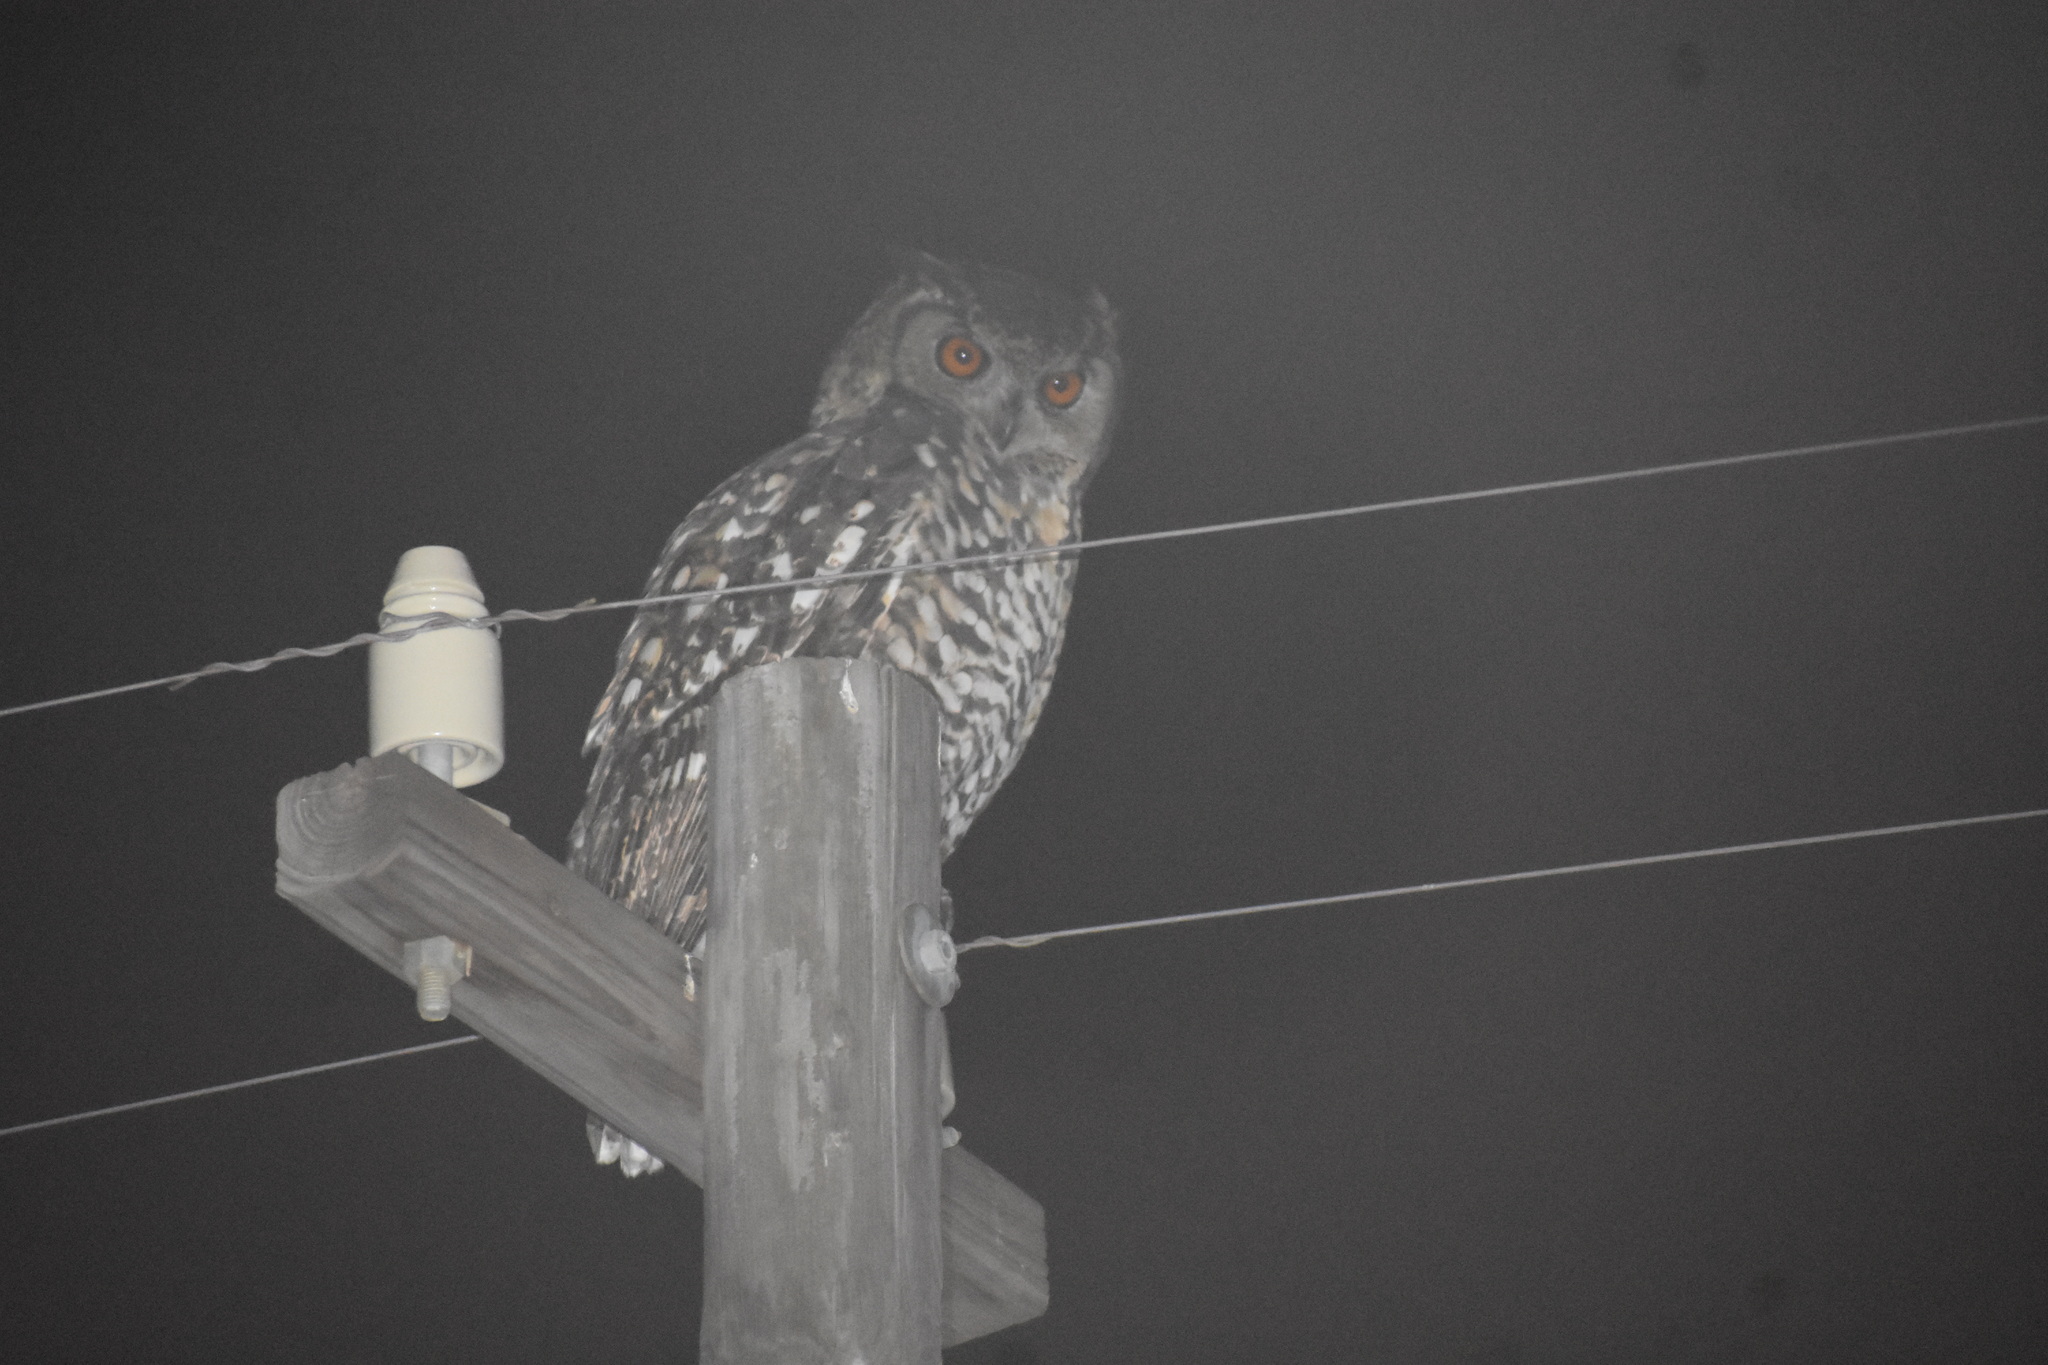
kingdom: Animalia
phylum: Chordata
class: Aves
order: Strigiformes
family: Strigidae
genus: Bubo
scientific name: Bubo capensis
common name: Cape eagle-owl
